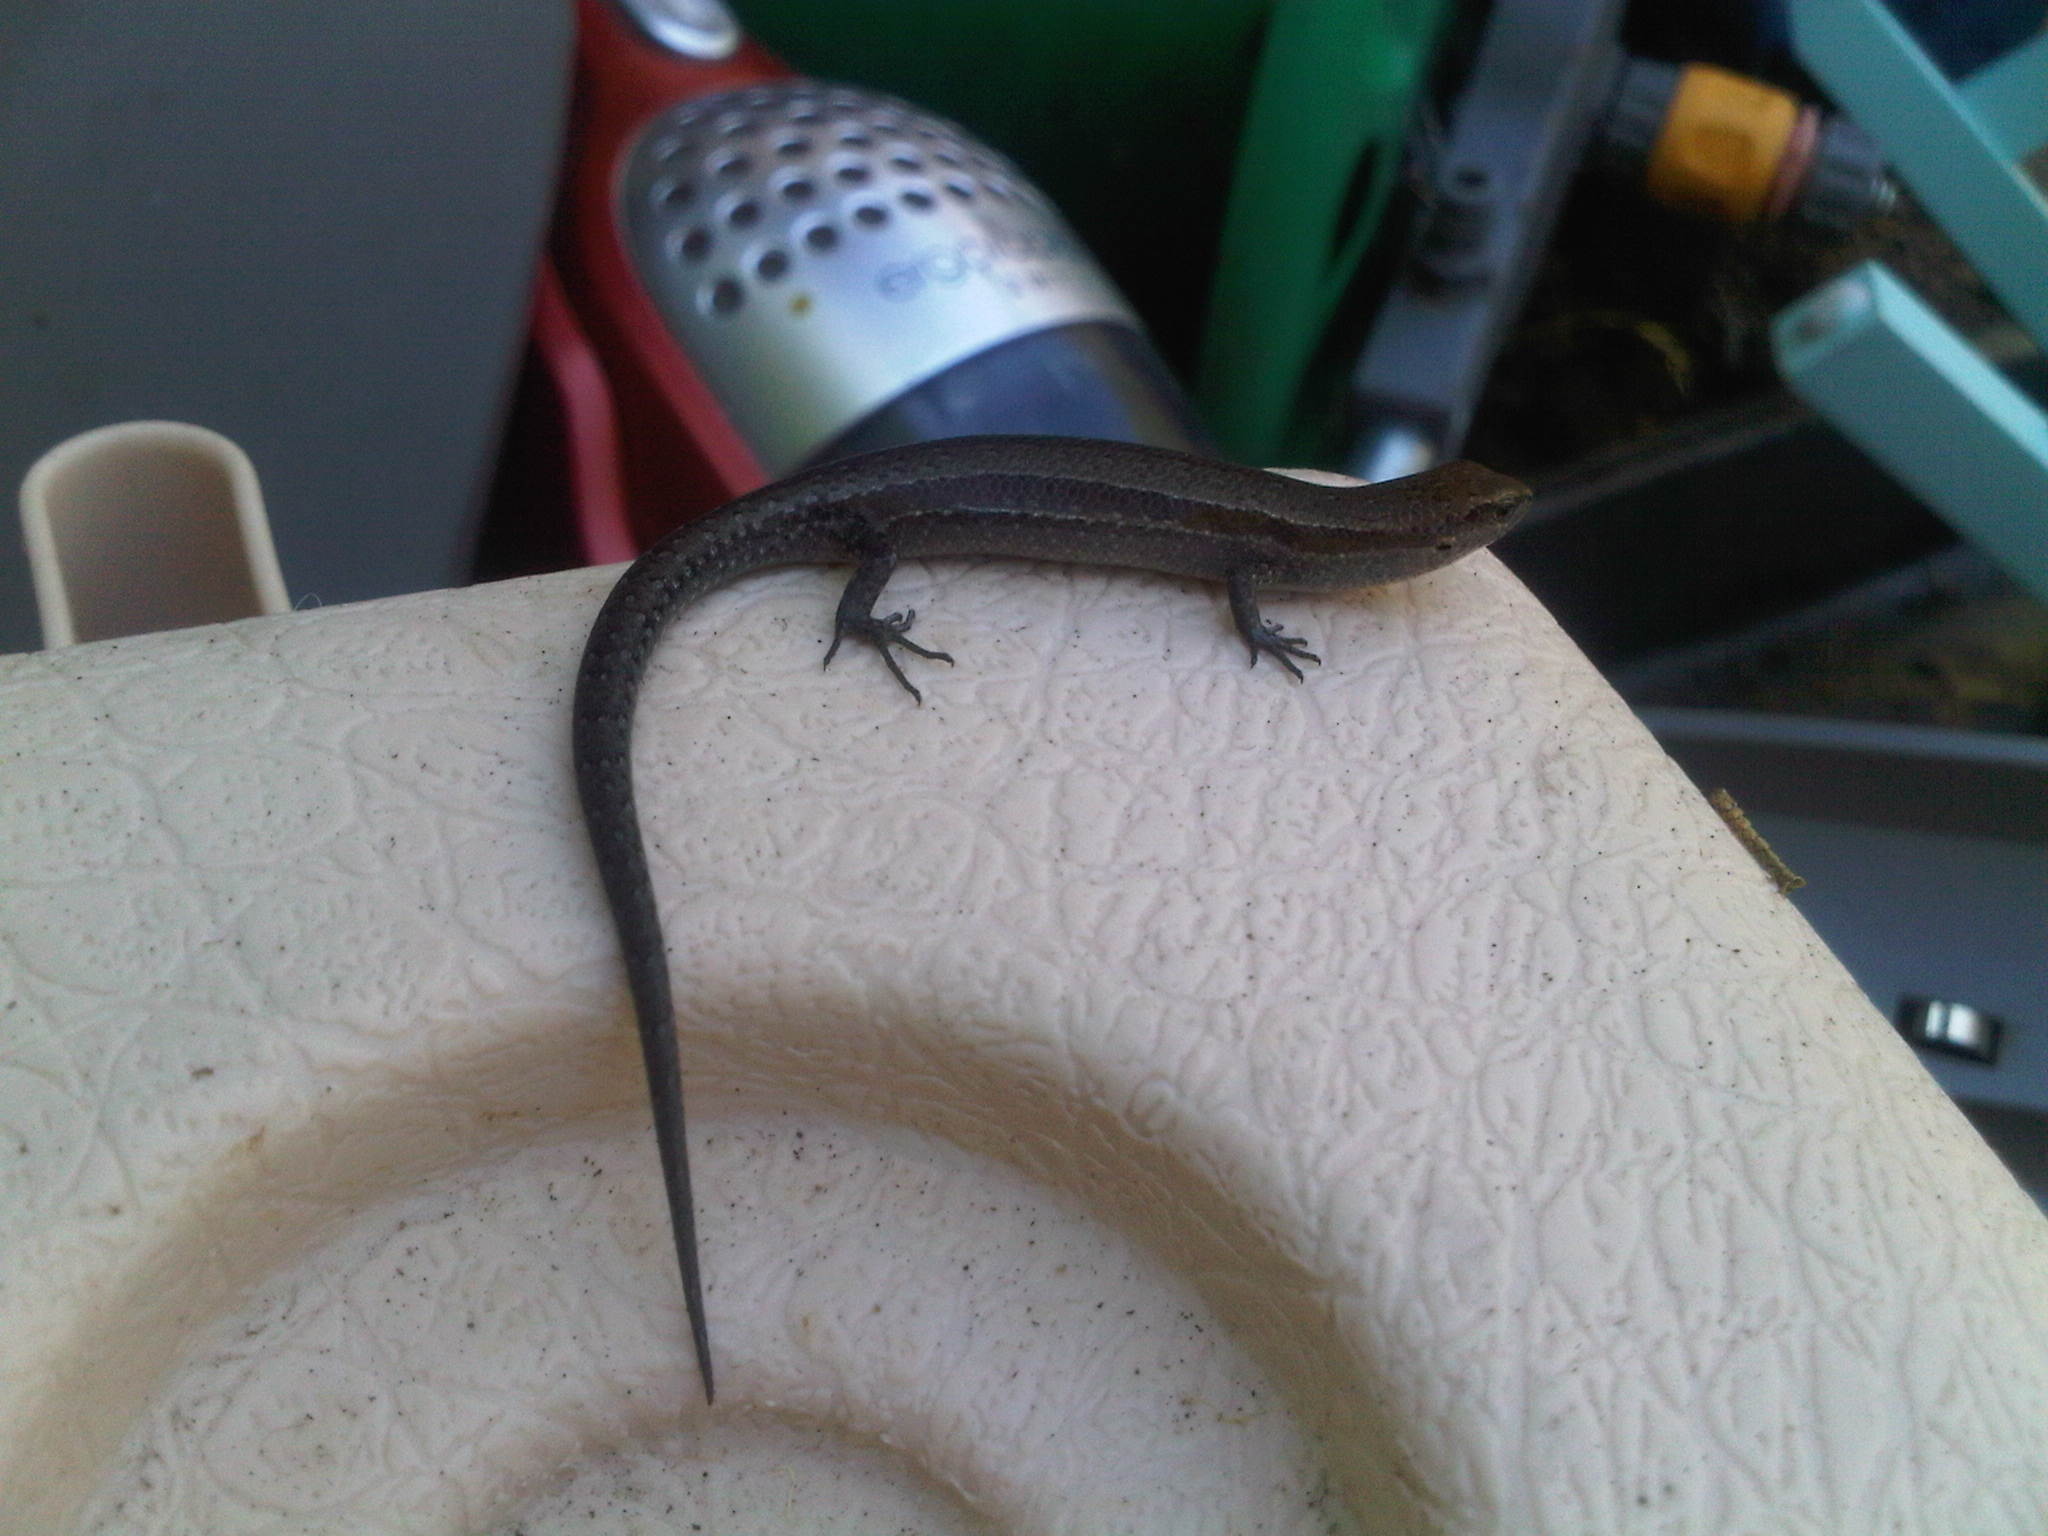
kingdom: Animalia
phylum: Chordata
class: Squamata
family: Scincidae
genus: Lampropholis
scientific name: Lampropholis delicata
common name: Plague skink
